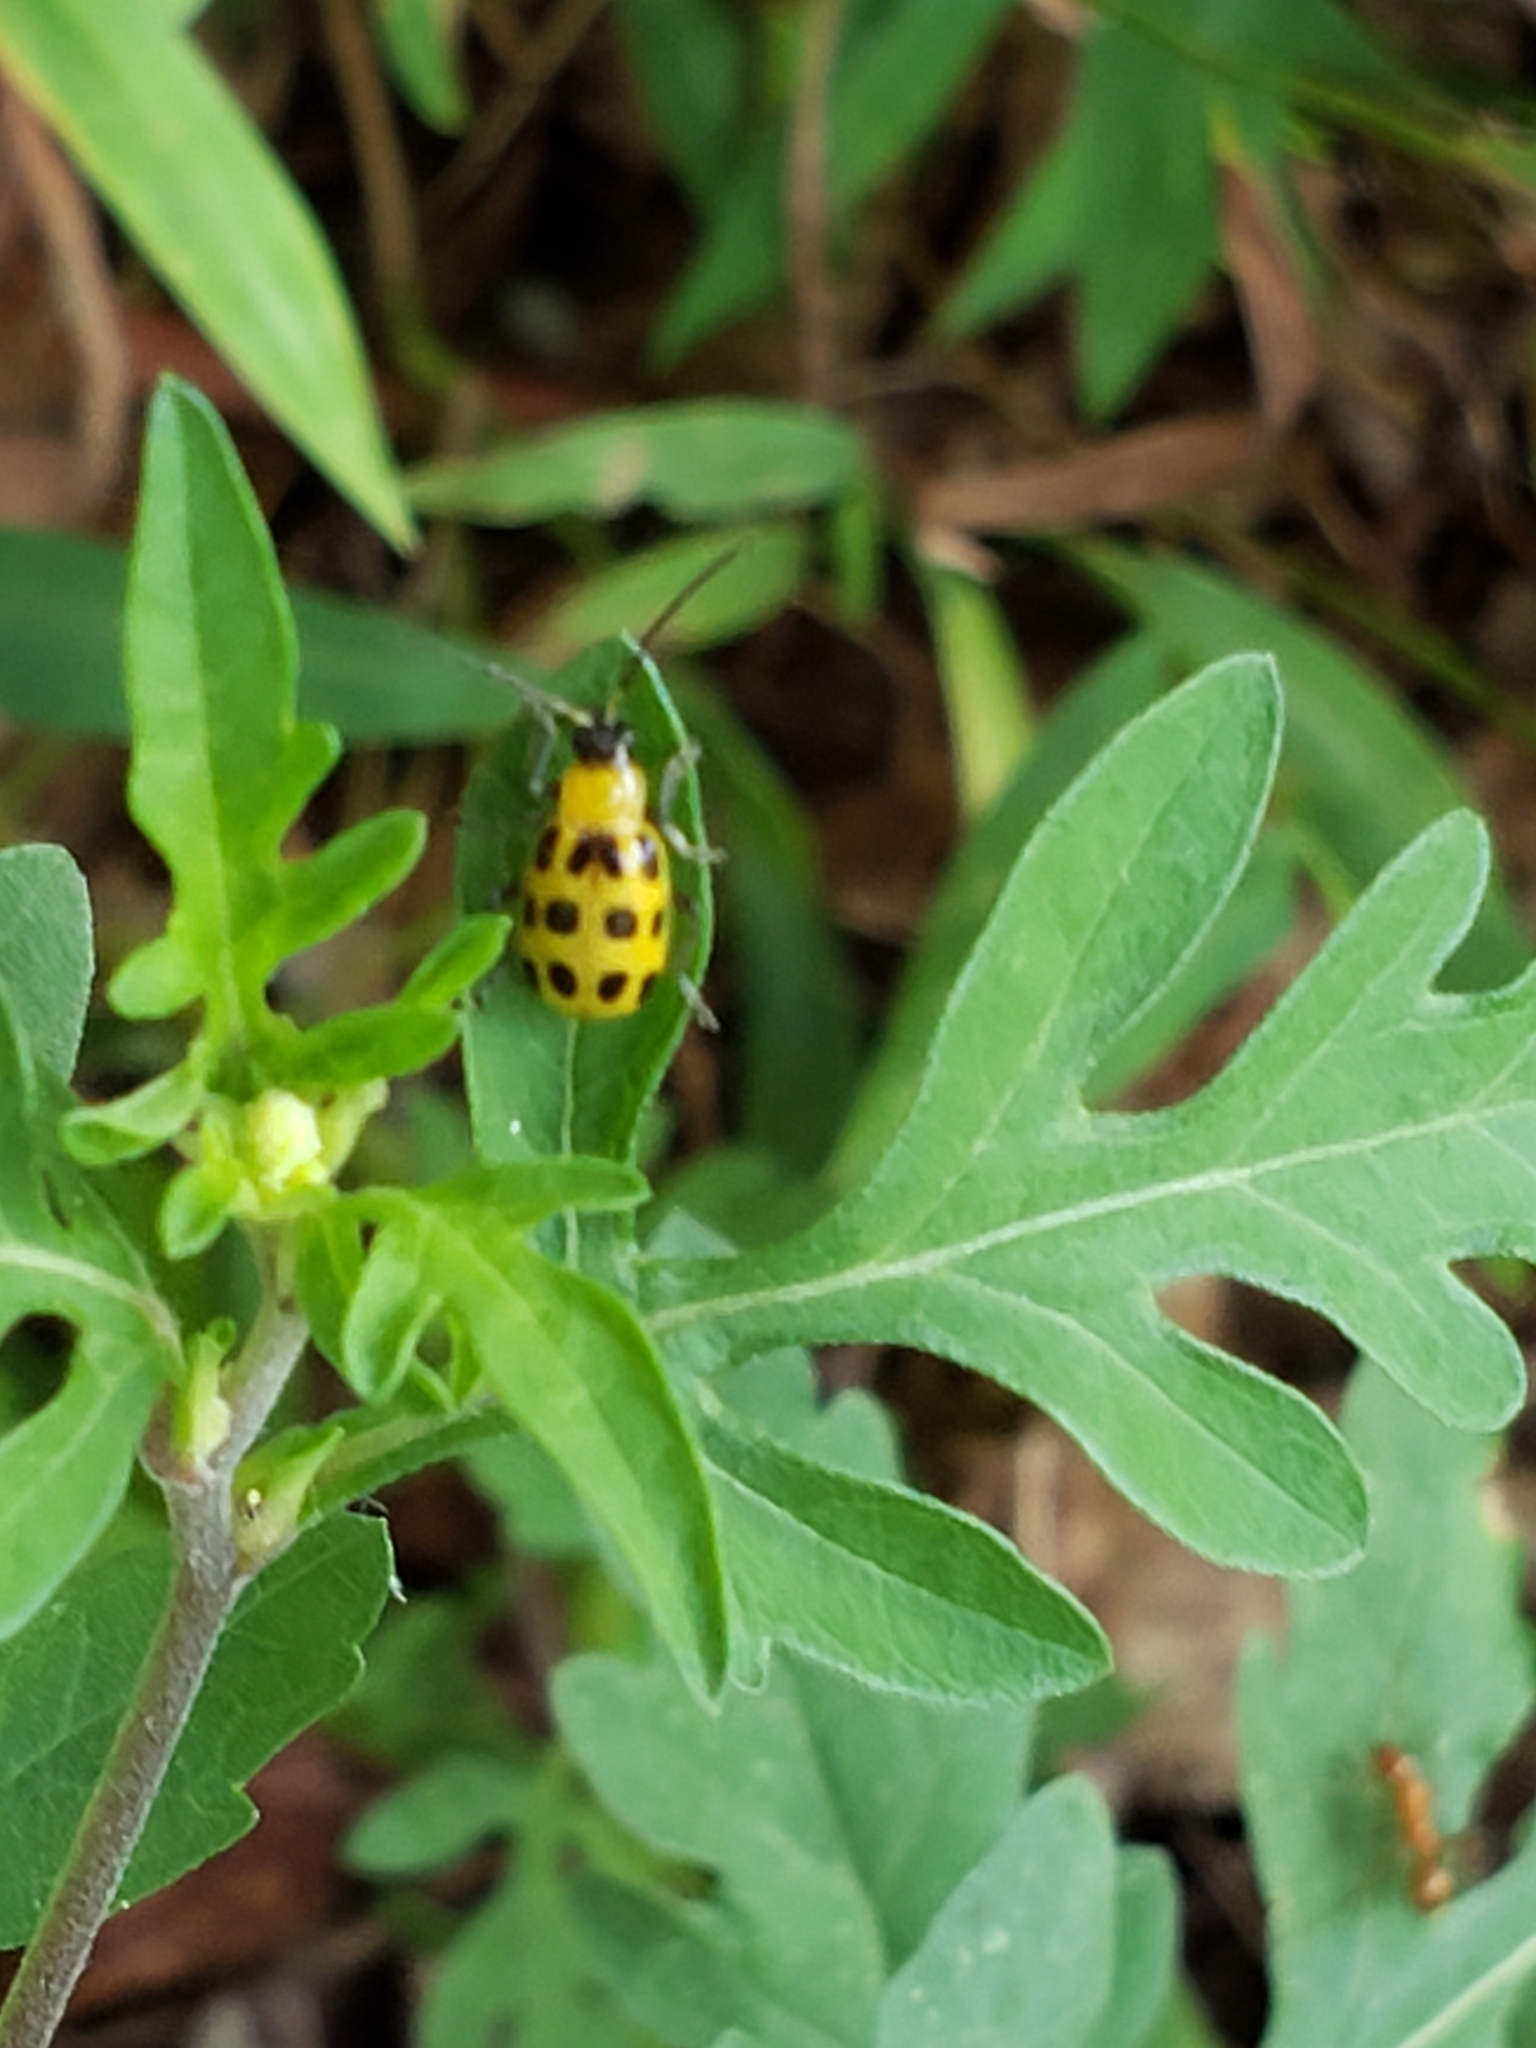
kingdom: Animalia
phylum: Arthropoda
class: Insecta
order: Coleoptera
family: Chrysomelidae
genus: Diabrotica
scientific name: Diabrotica undecimpunctata
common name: Spotted cucumber beetle
